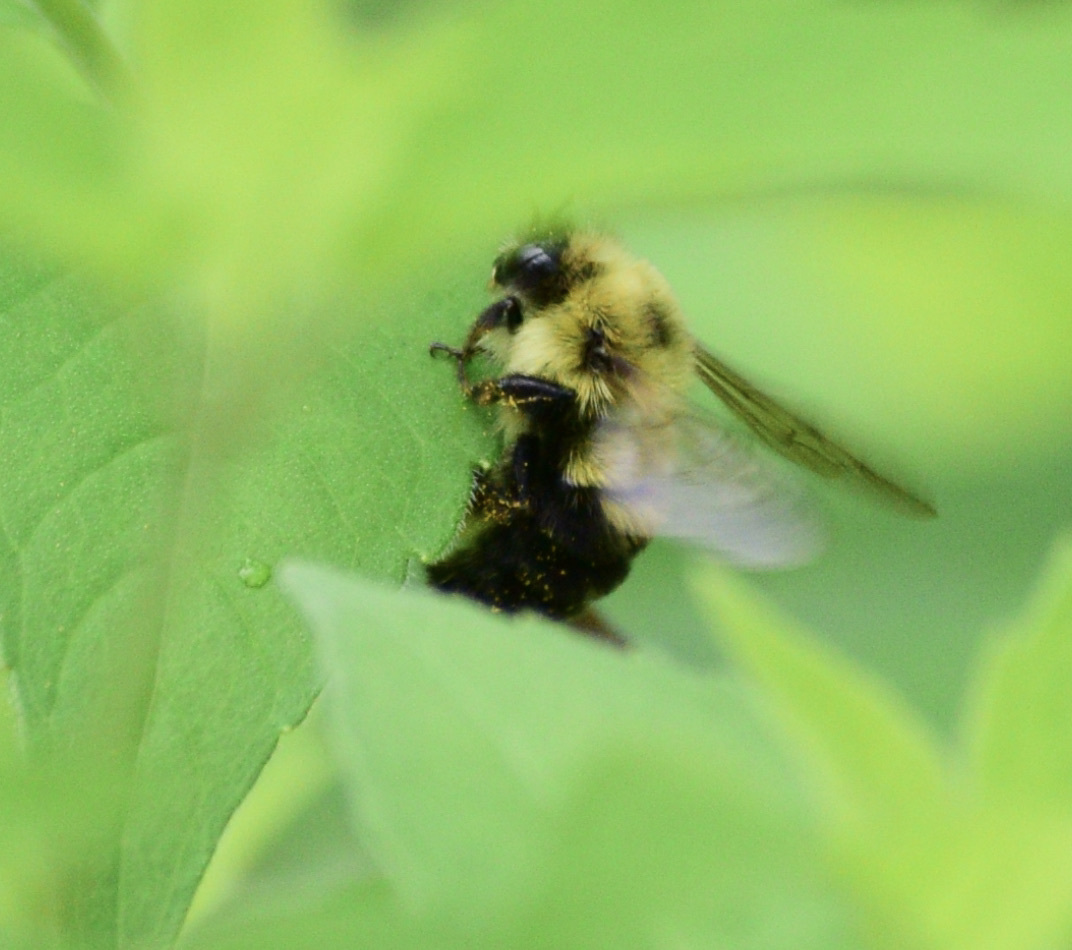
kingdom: Animalia
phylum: Arthropoda
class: Insecta
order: Hymenoptera
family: Apidae
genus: Bombus
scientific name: Bombus bimaculatus
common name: Two-spotted bumble bee
